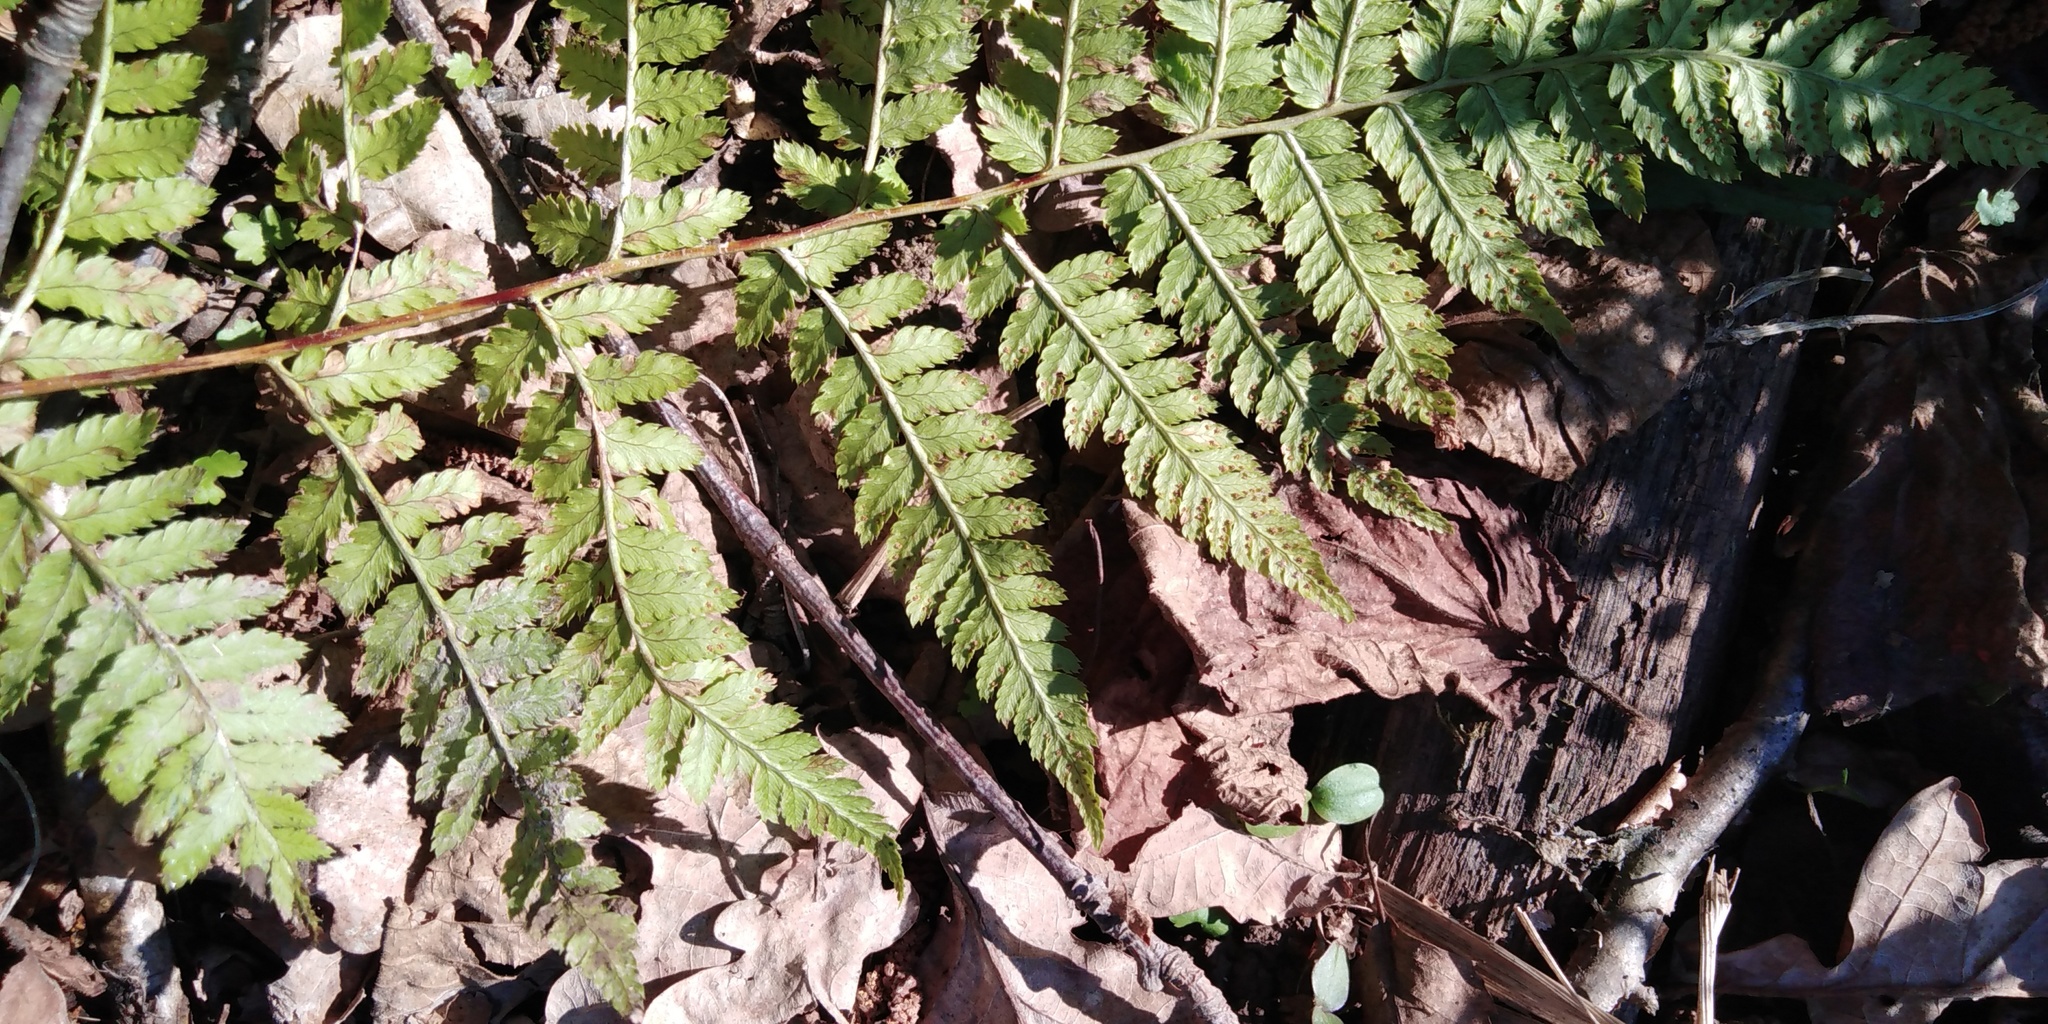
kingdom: Plantae
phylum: Tracheophyta
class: Polypodiopsida
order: Polypodiales
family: Dryopteridaceae
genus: Dryopteris
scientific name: Dryopteris carthusiana
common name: Narrow buckler-fern
